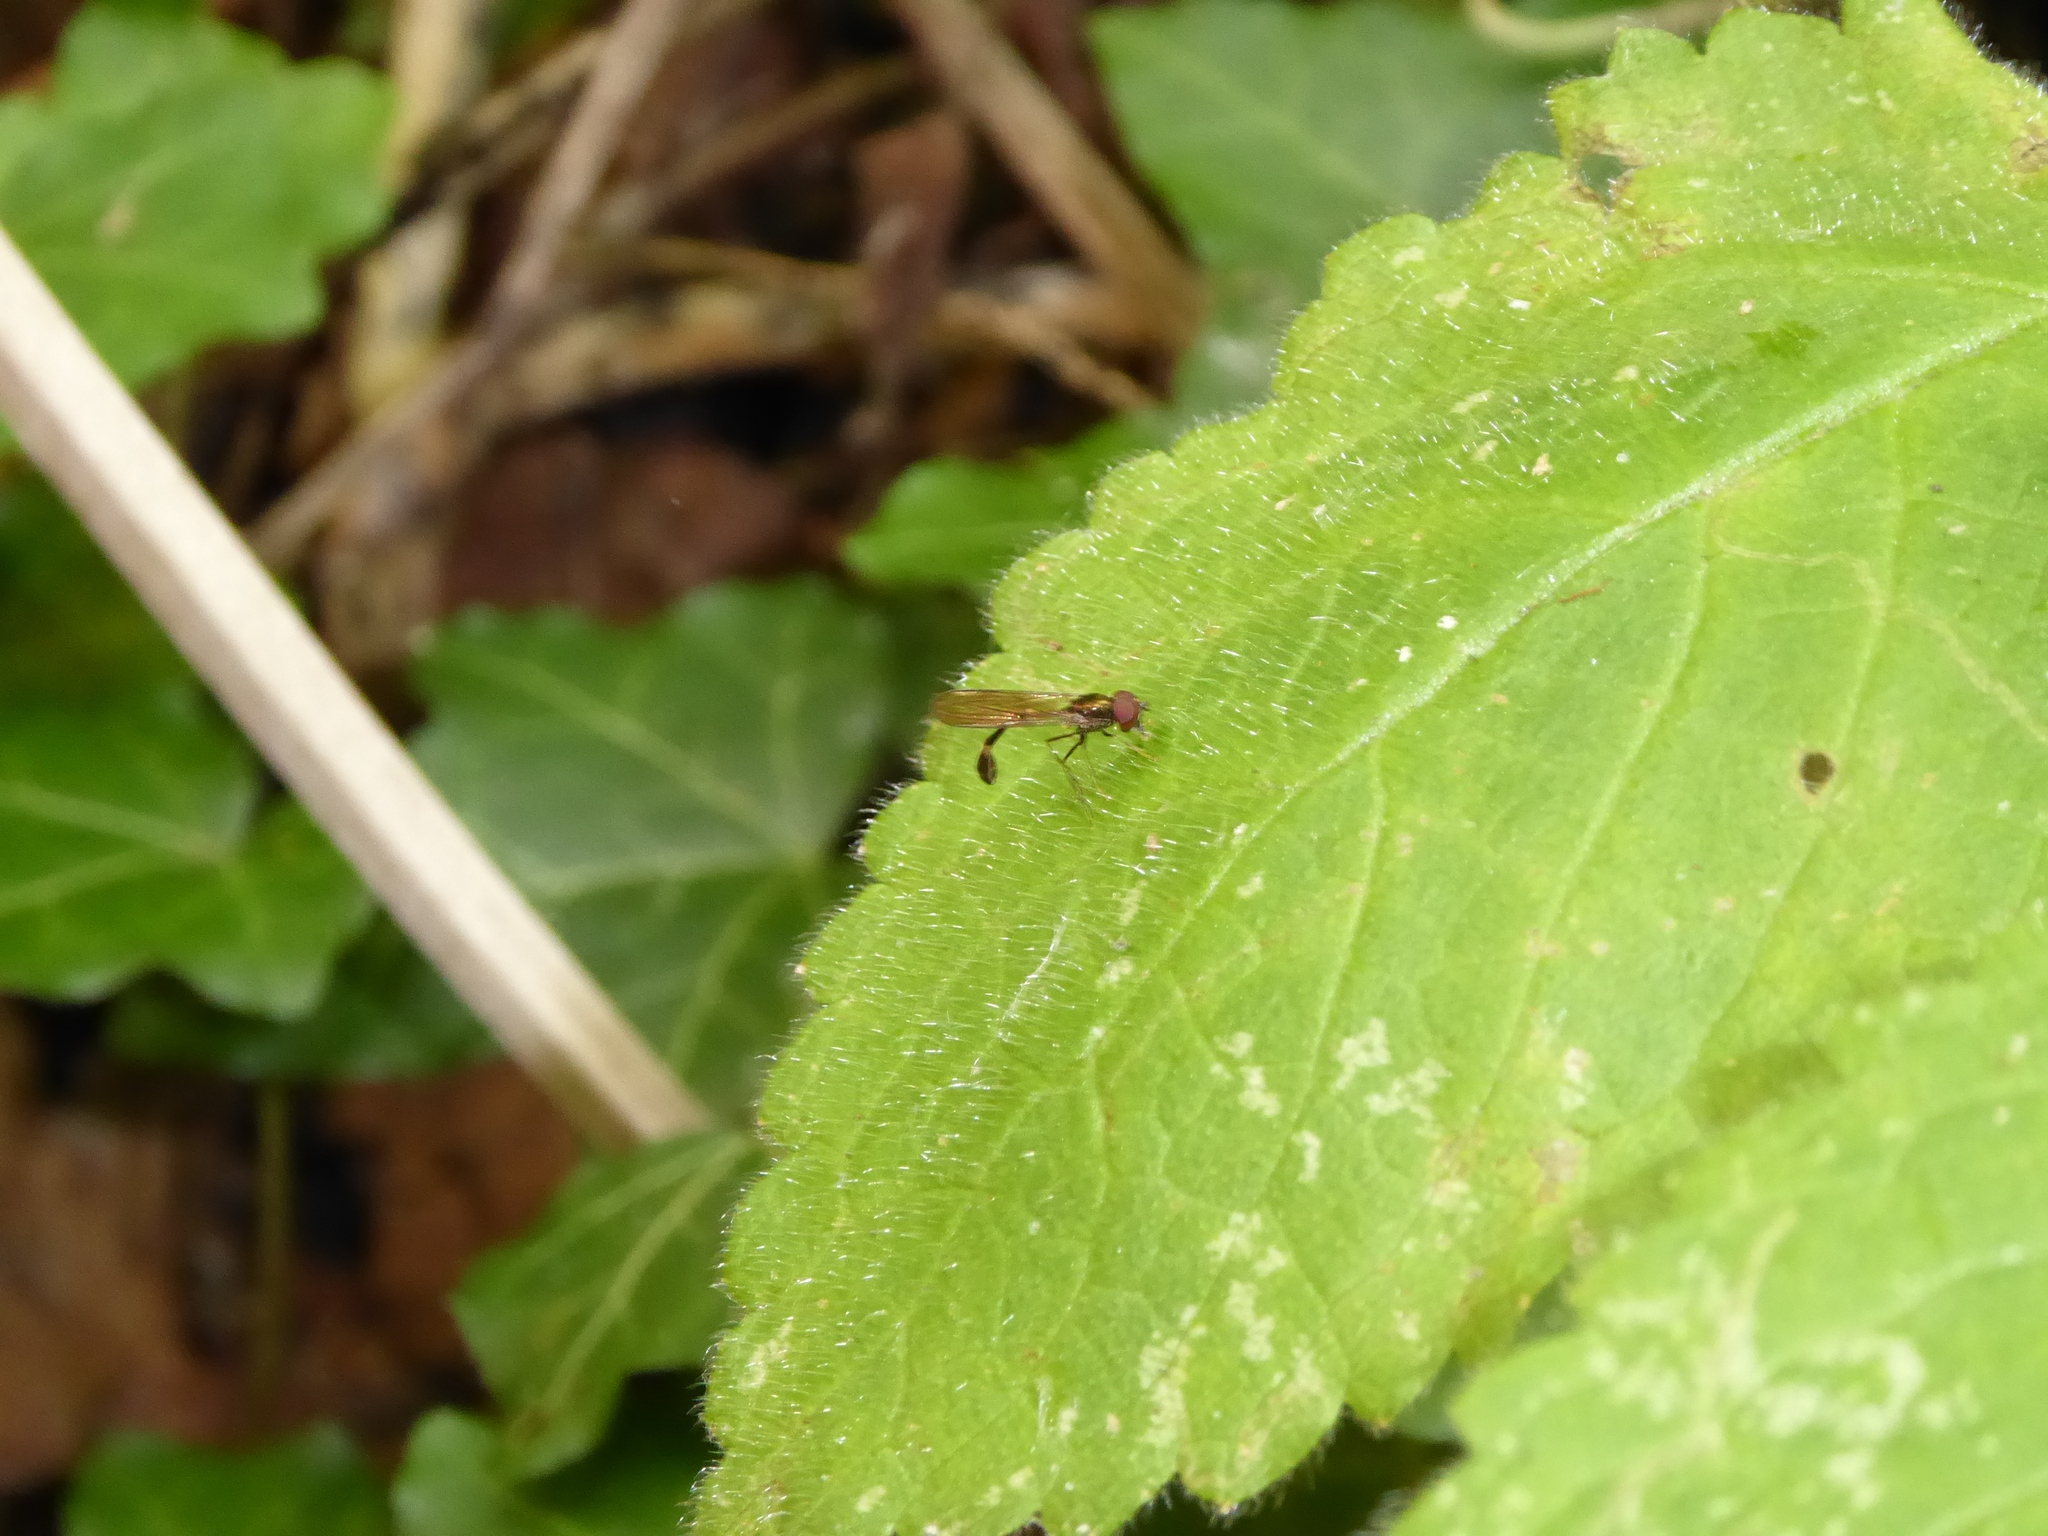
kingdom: Animalia
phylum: Arthropoda
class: Insecta
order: Diptera
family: Syrphidae
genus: Baccha
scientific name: Baccha elongata
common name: Common dainty
